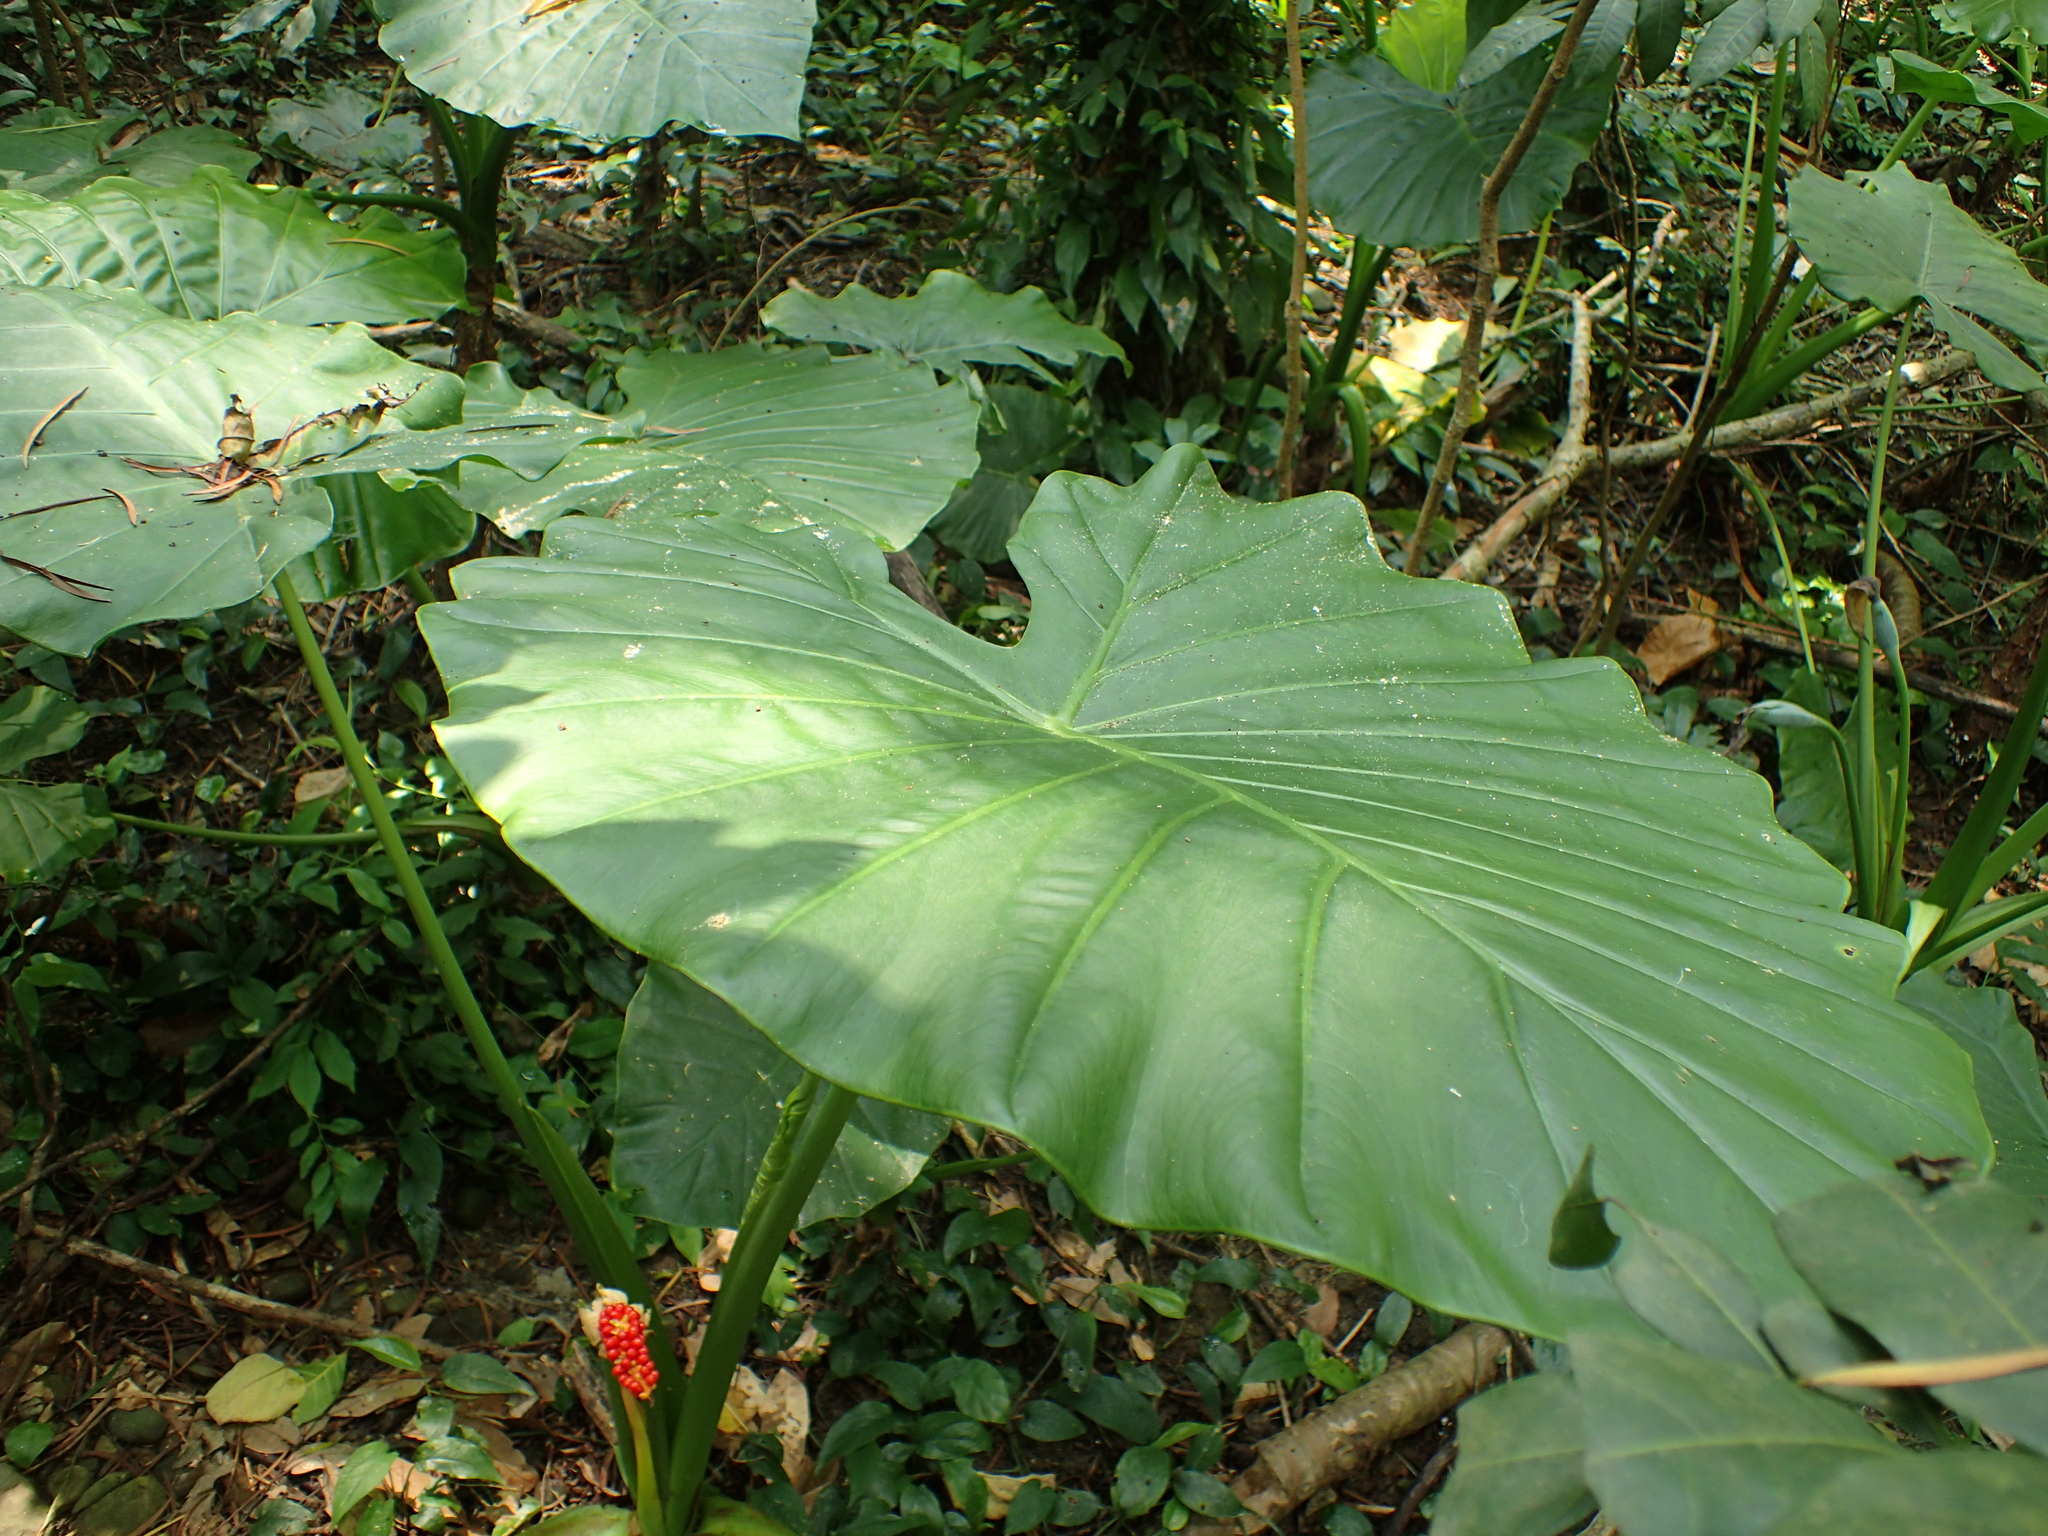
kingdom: Plantae
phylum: Tracheophyta
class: Liliopsida
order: Alismatales
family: Araceae
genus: Alocasia
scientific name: Alocasia odora
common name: Asian taro
